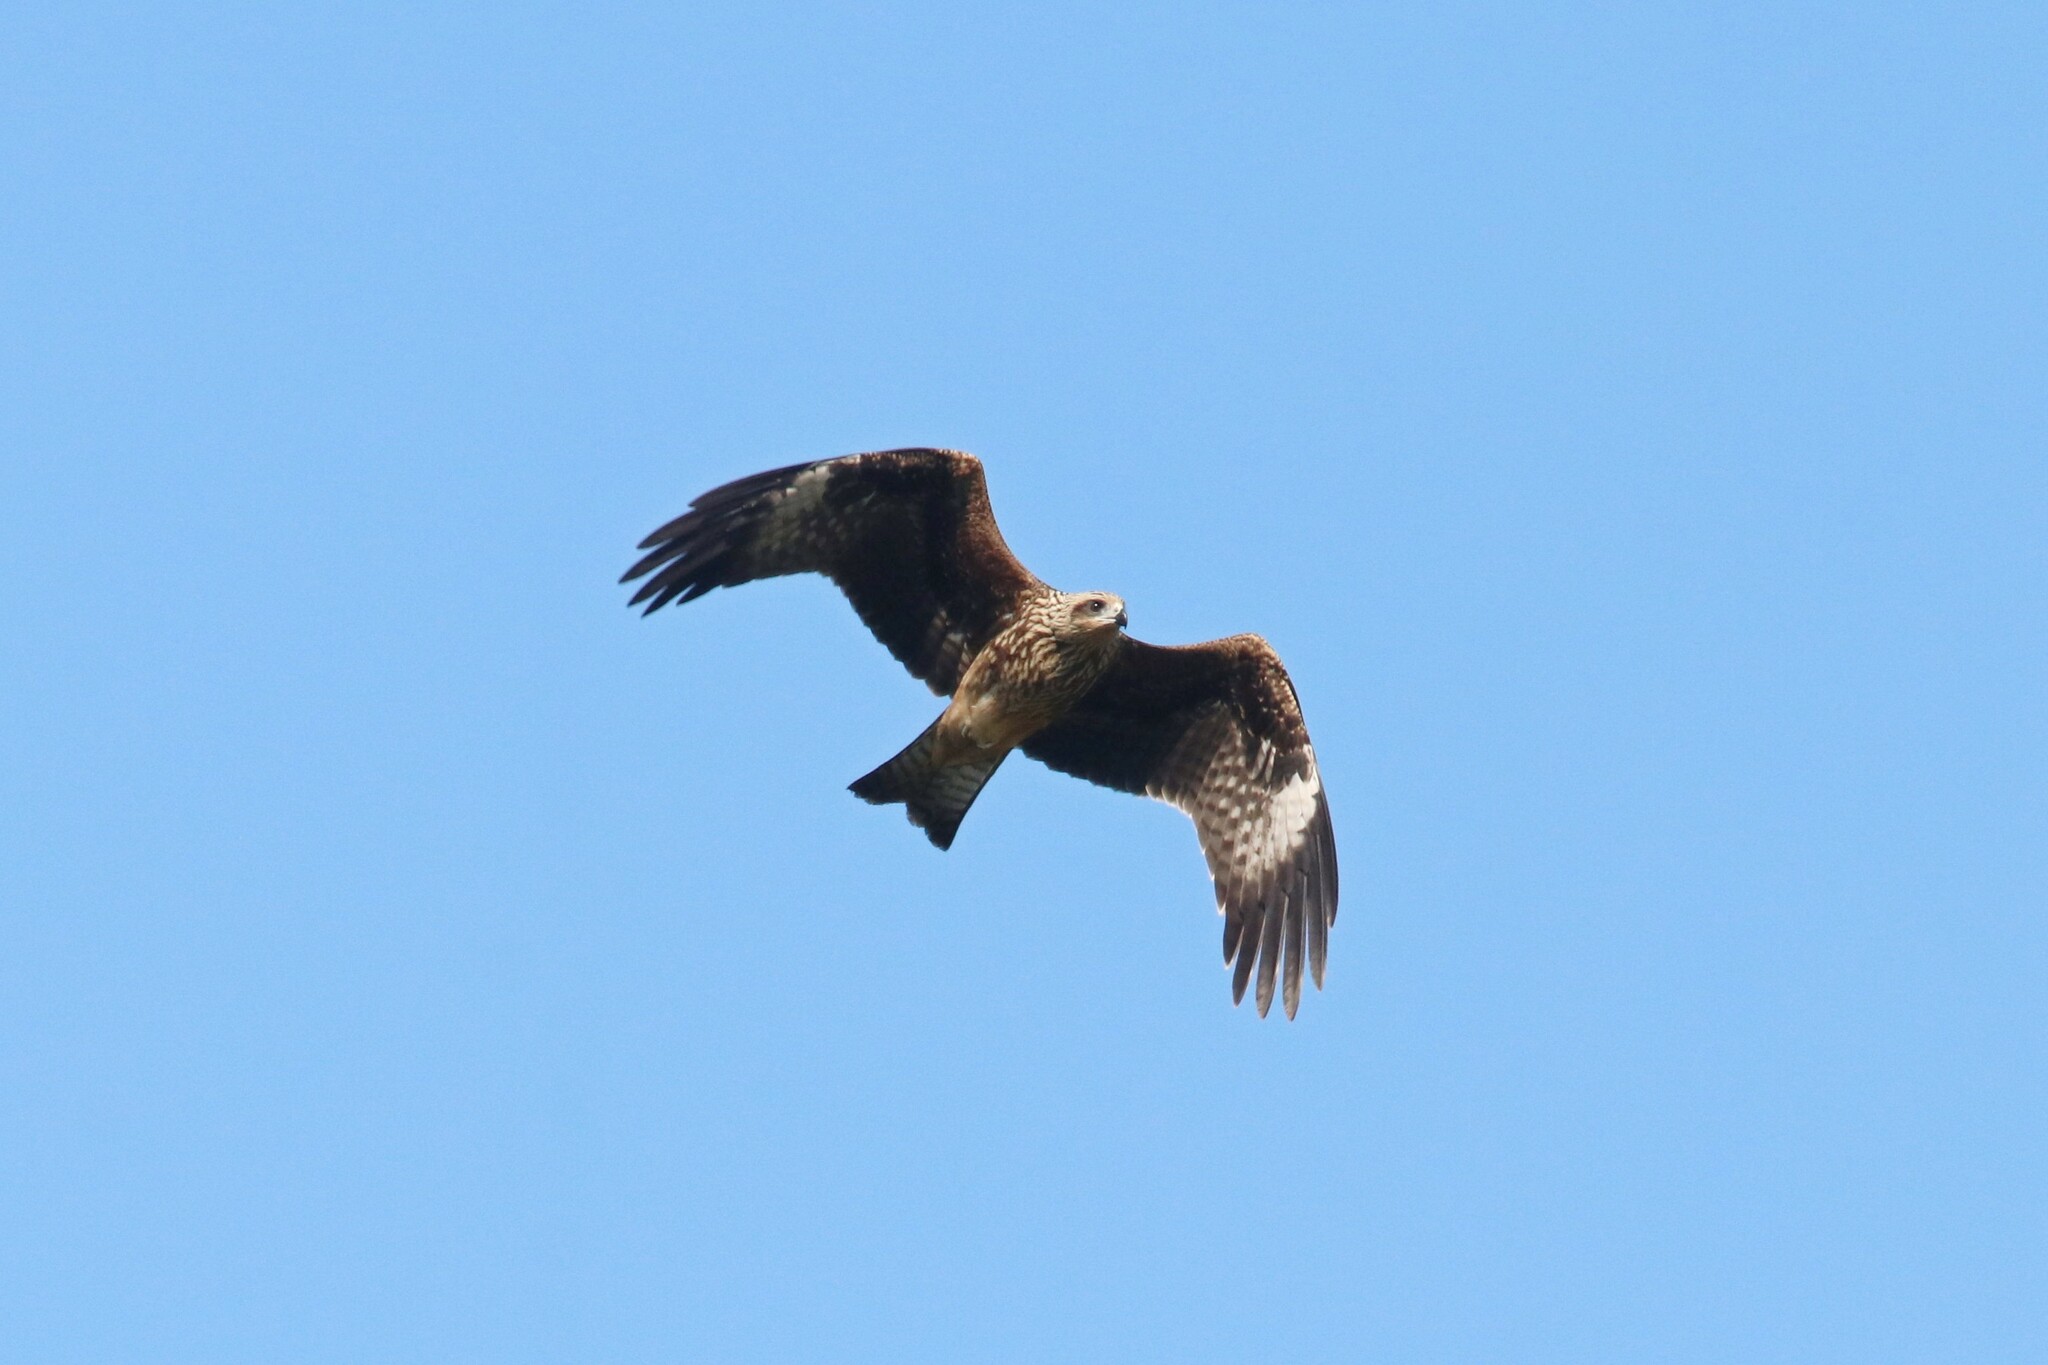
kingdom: Animalia
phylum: Chordata
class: Aves
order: Accipitriformes
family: Accipitridae
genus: Milvus
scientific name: Milvus migrans
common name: Black kite
